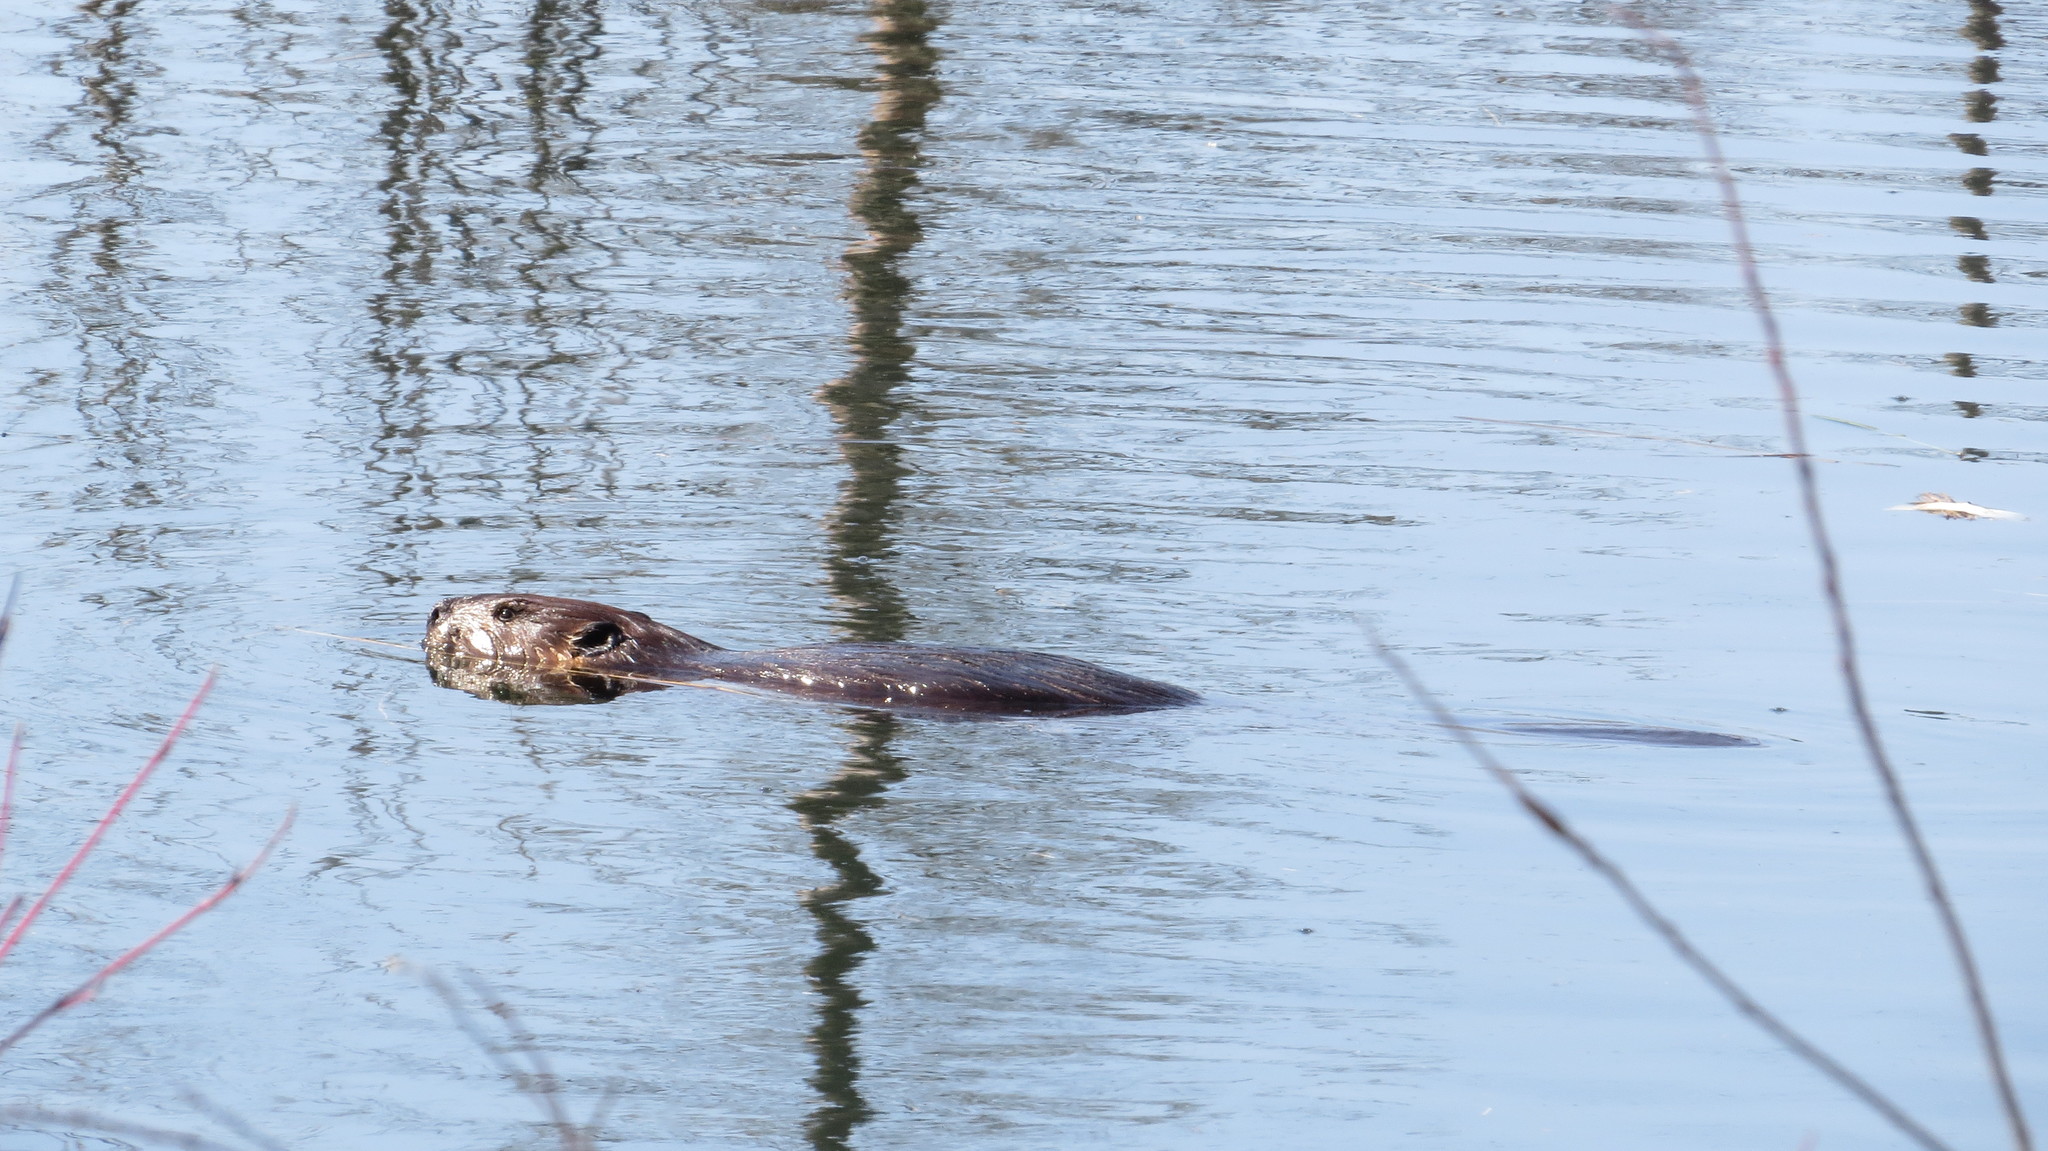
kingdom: Animalia
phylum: Chordata
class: Mammalia
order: Rodentia
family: Castoridae
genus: Castor
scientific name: Castor canadensis
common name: American beaver
